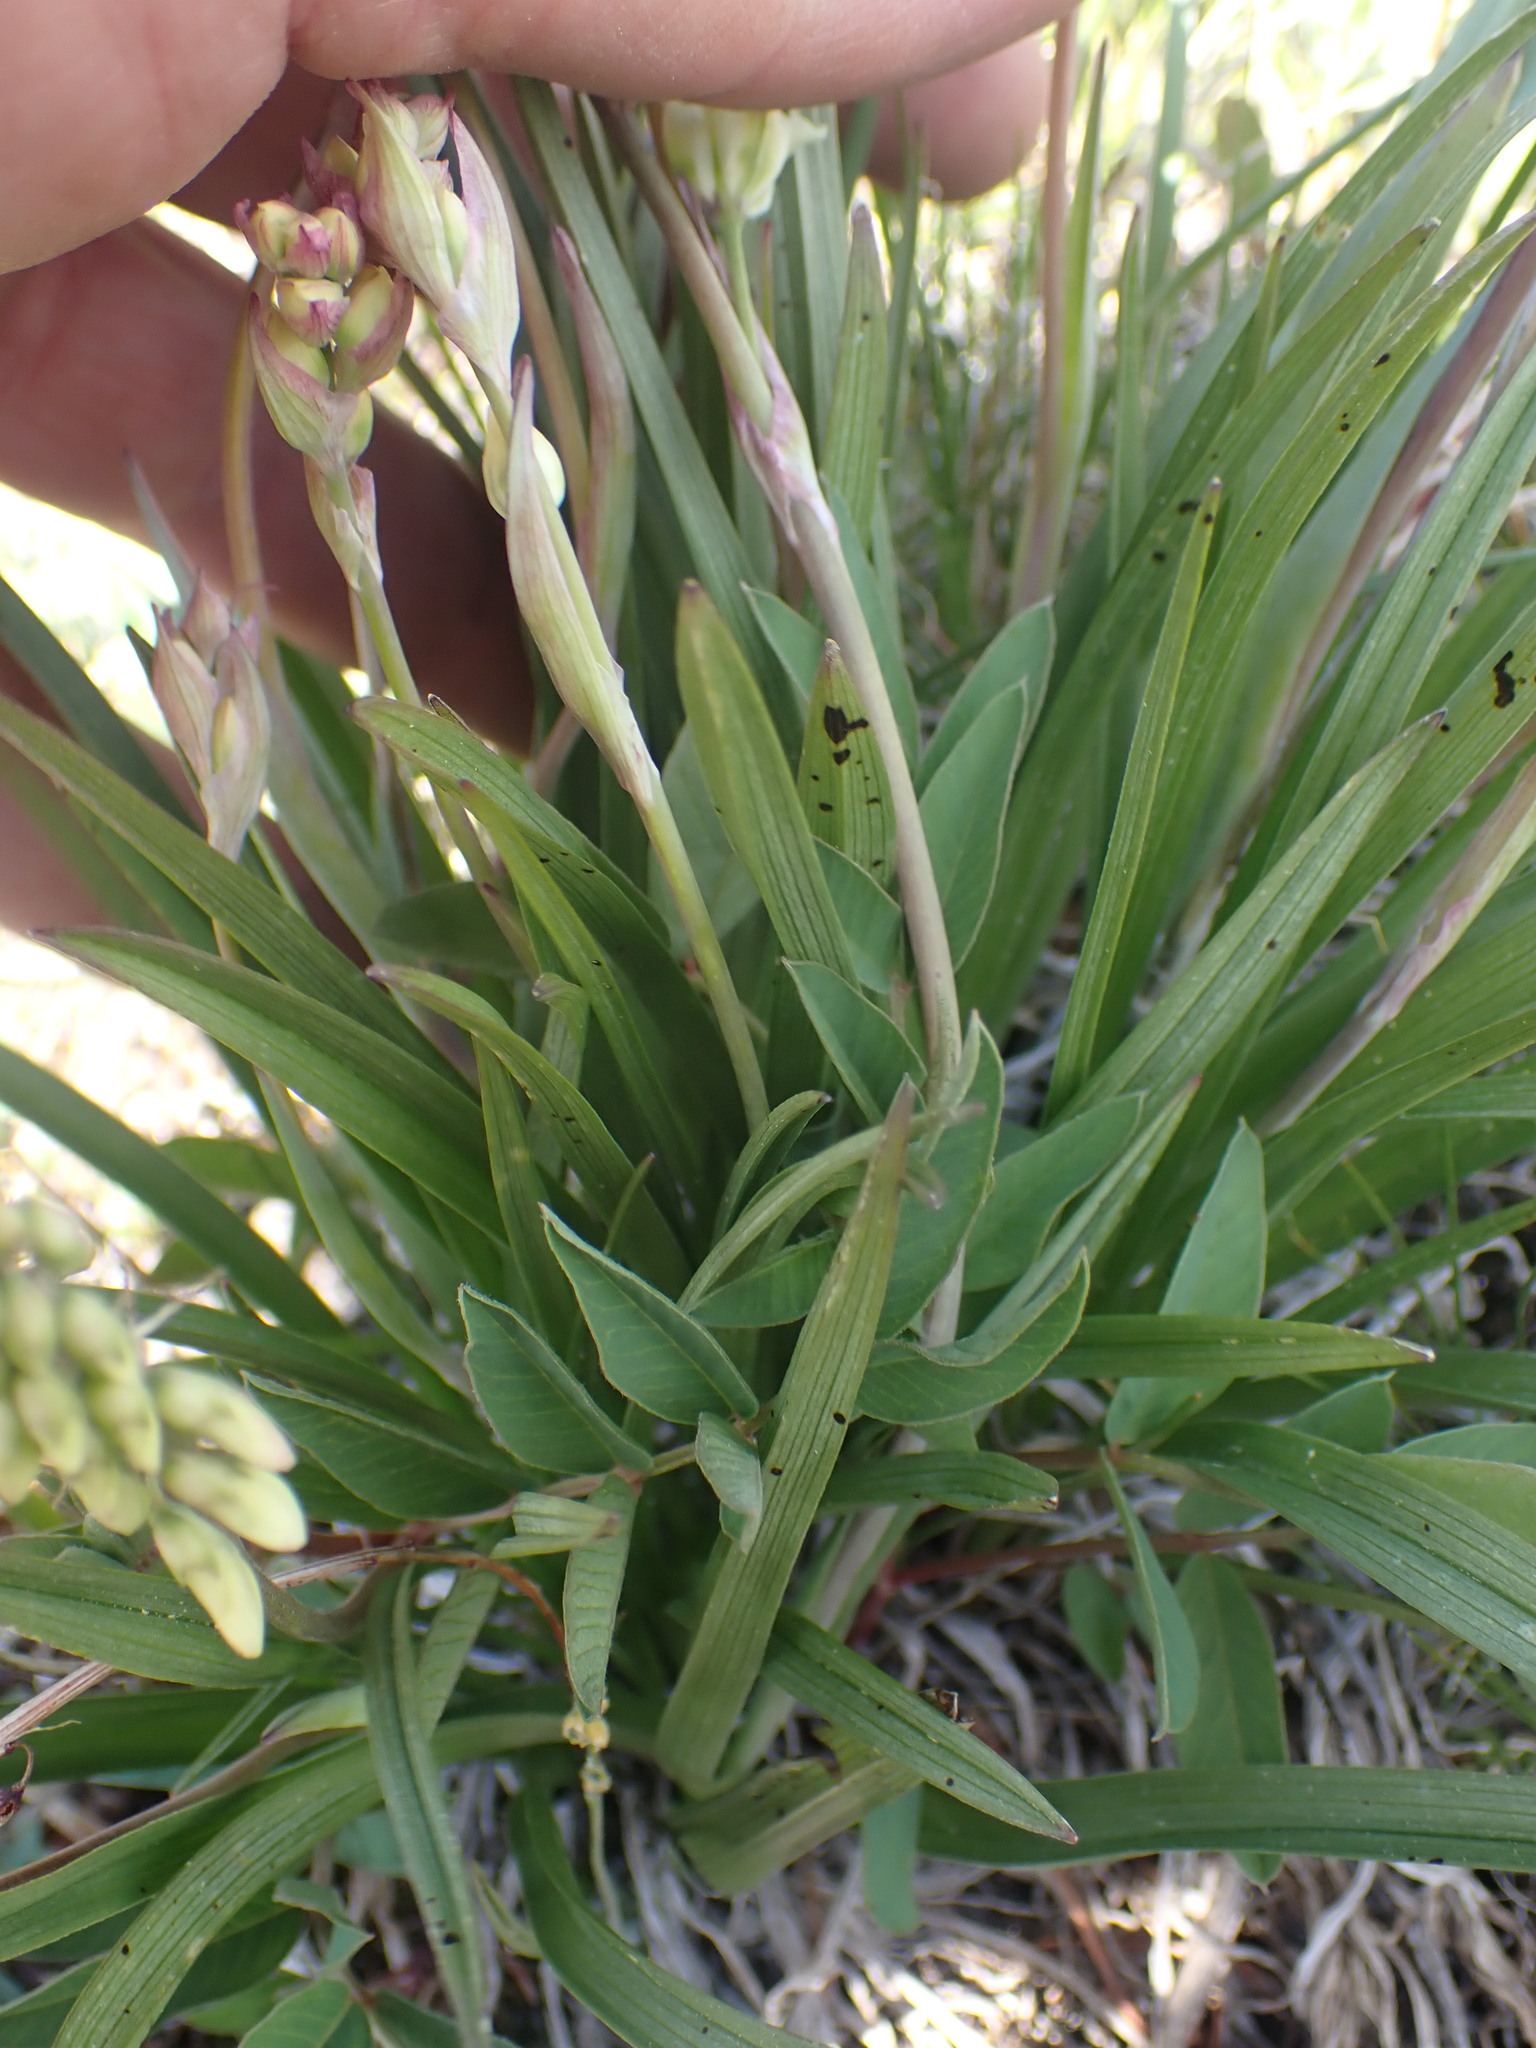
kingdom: Plantae
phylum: Tracheophyta
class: Liliopsida
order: Liliales
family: Melanthiaceae
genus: Anticlea
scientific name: Anticlea elegans
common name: Mountain death camas
